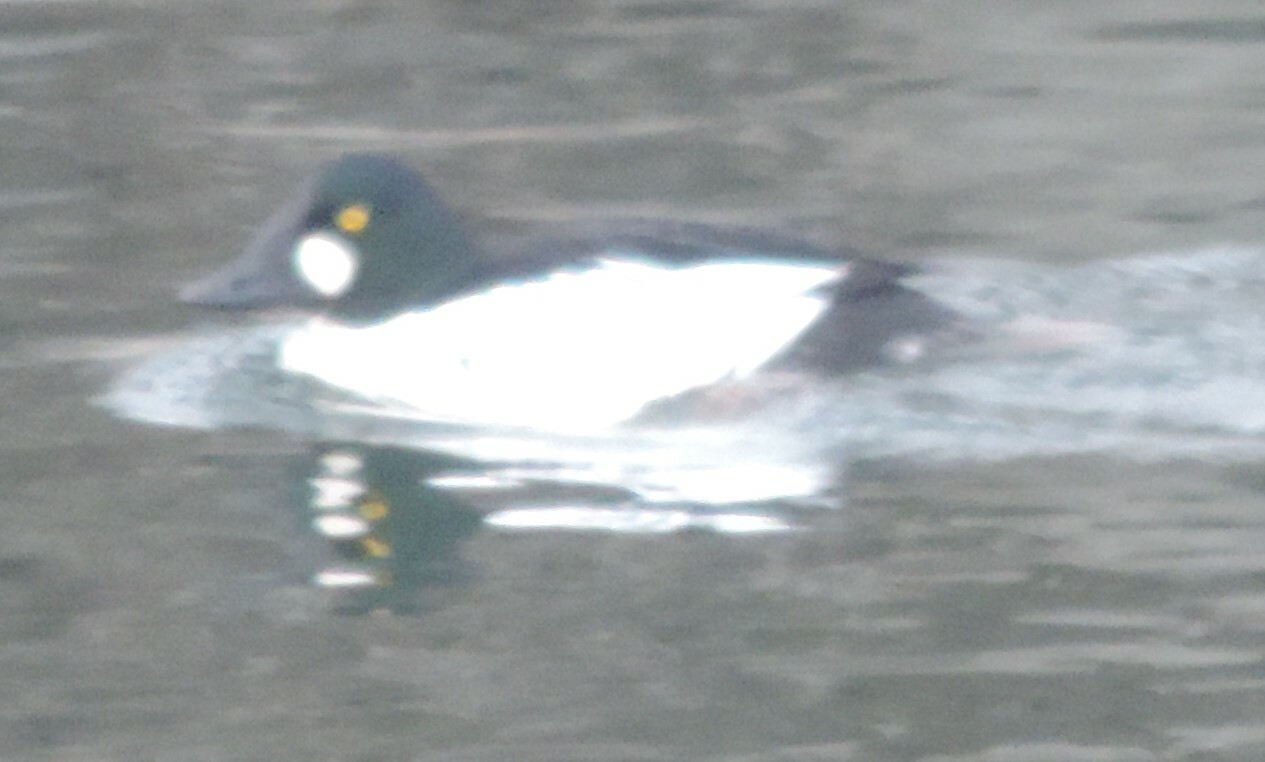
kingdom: Animalia
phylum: Chordata
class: Aves
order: Anseriformes
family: Anatidae
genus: Bucephala
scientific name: Bucephala clangula
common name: Common goldeneye
